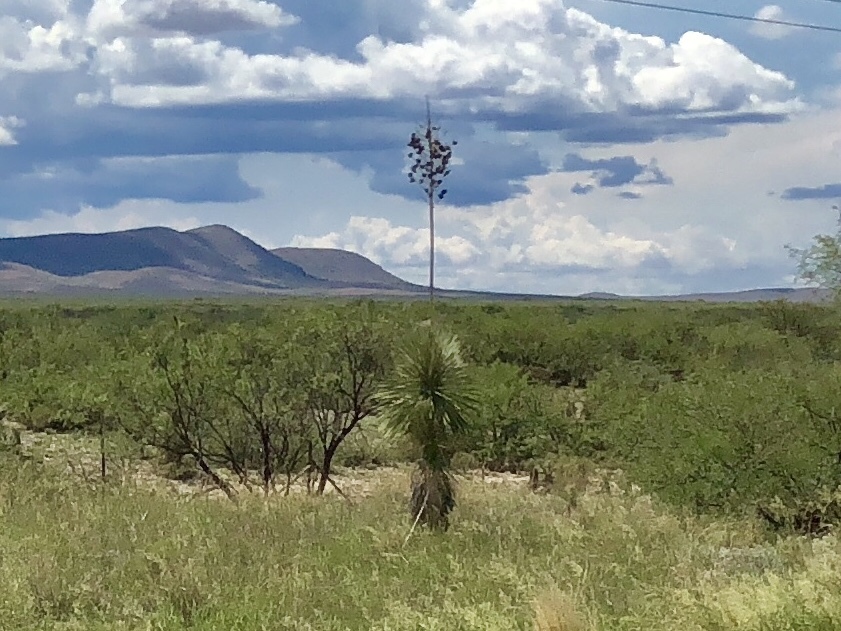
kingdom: Plantae
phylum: Tracheophyta
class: Liliopsida
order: Asparagales
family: Asparagaceae
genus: Yucca
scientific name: Yucca elata
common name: Palmella
